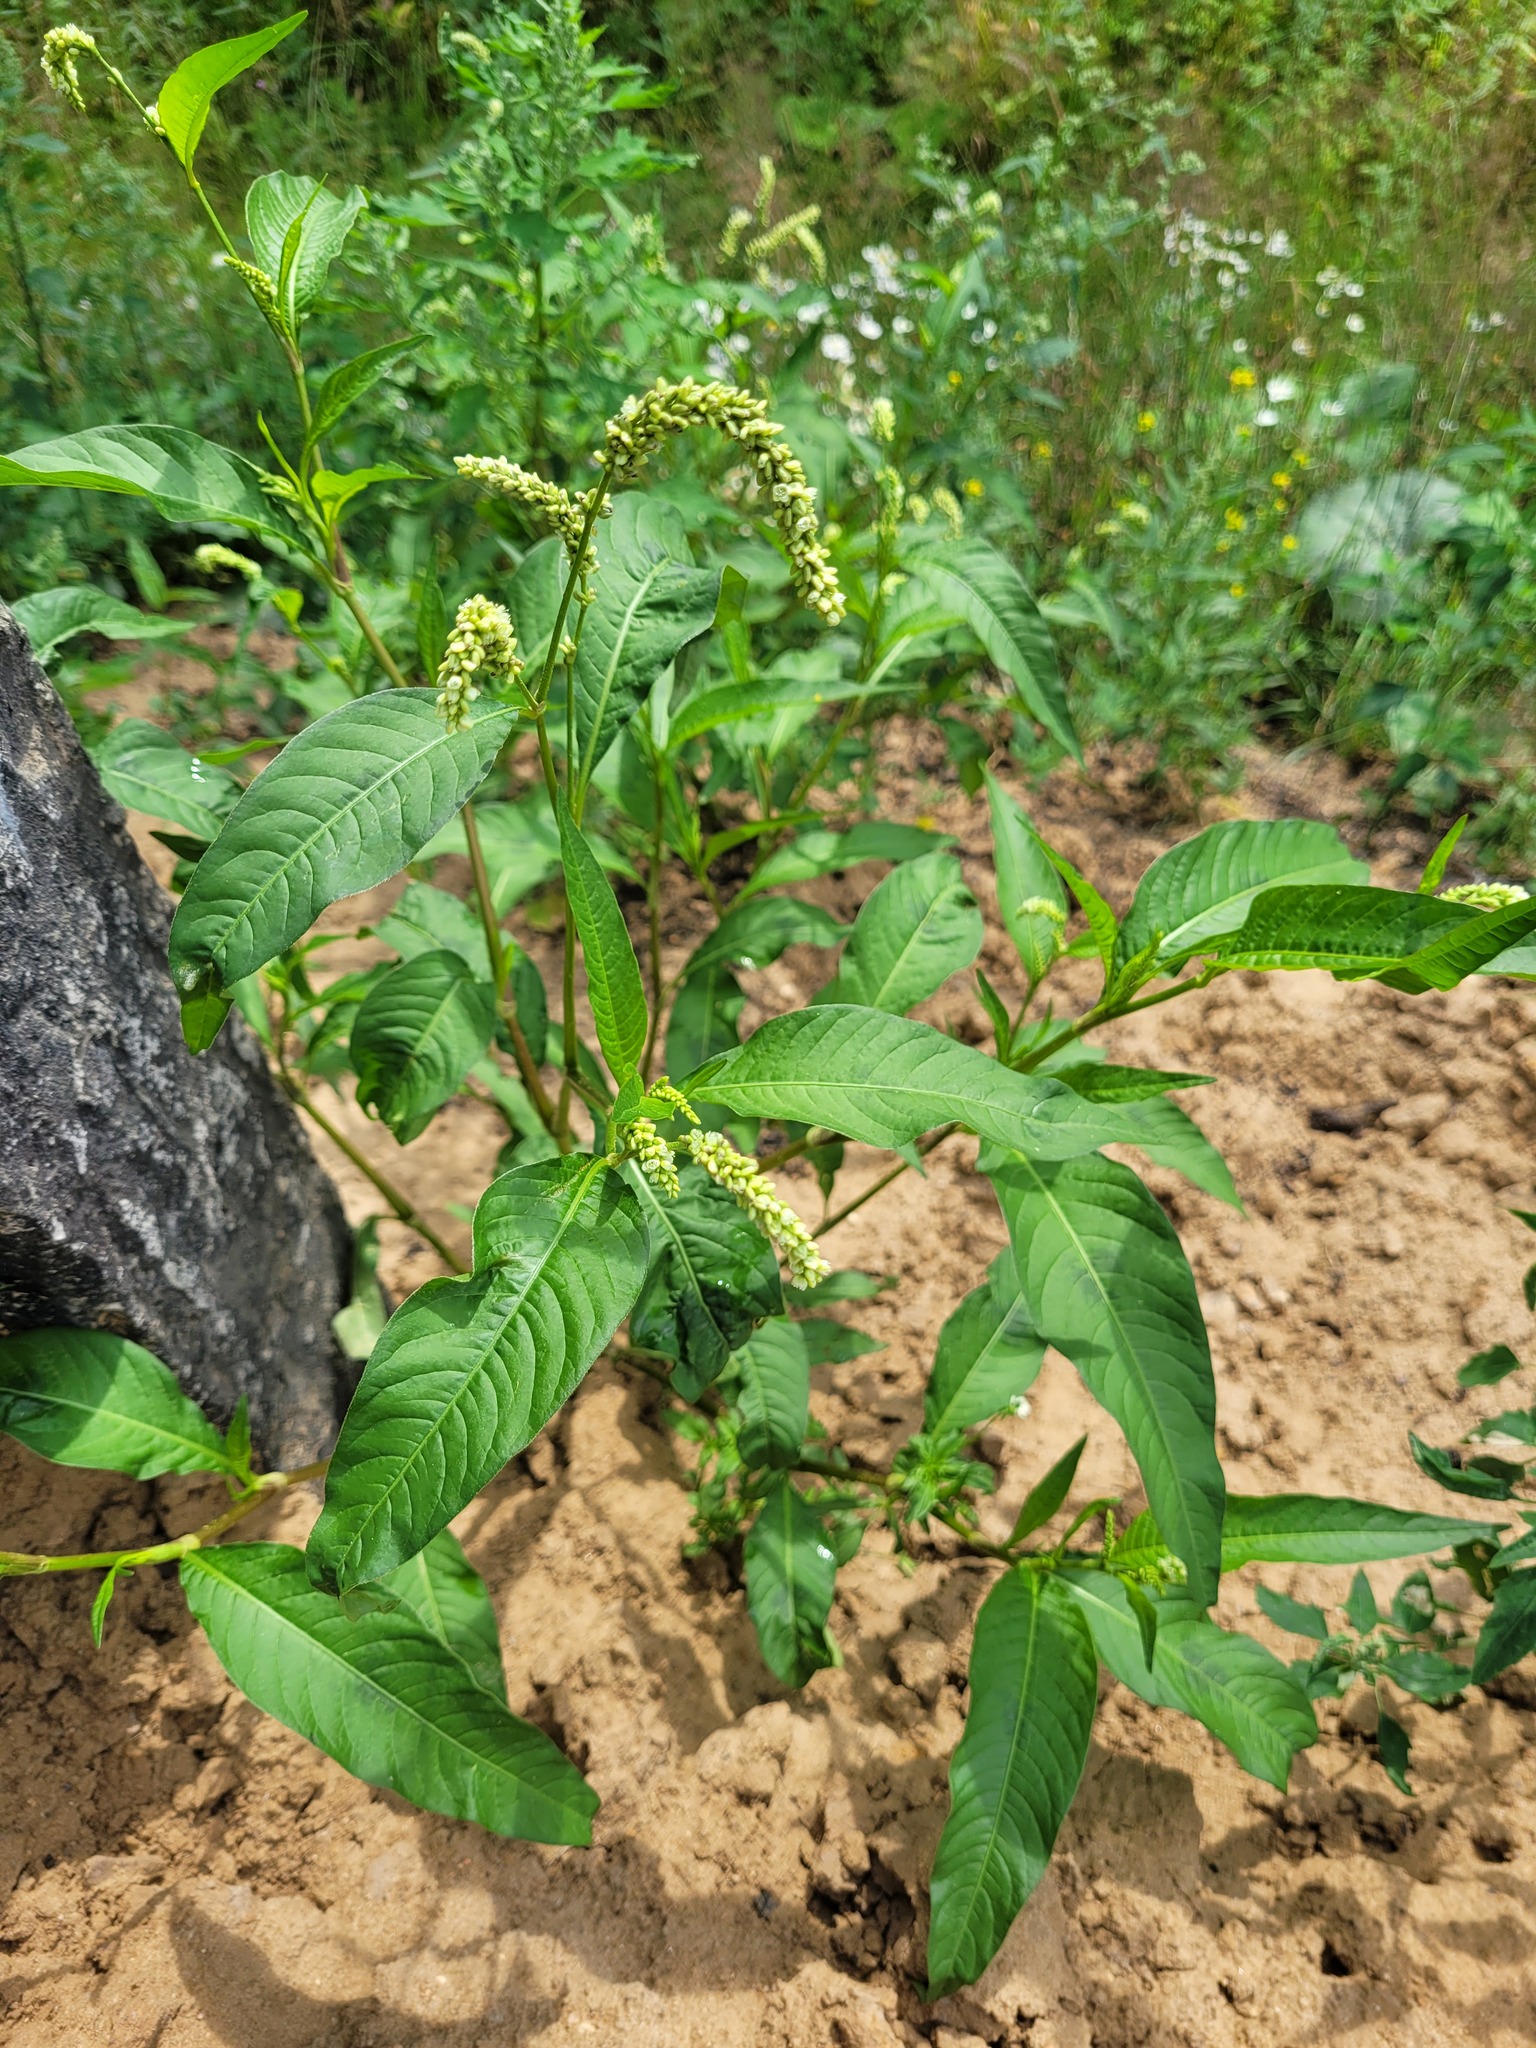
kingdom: Plantae
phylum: Tracheophyta
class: Magnoliopsida
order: Caryophyllales
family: Polygonaceae
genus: Persicaria
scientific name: Persicaria lapathifolia
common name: Curlytop knotweed
